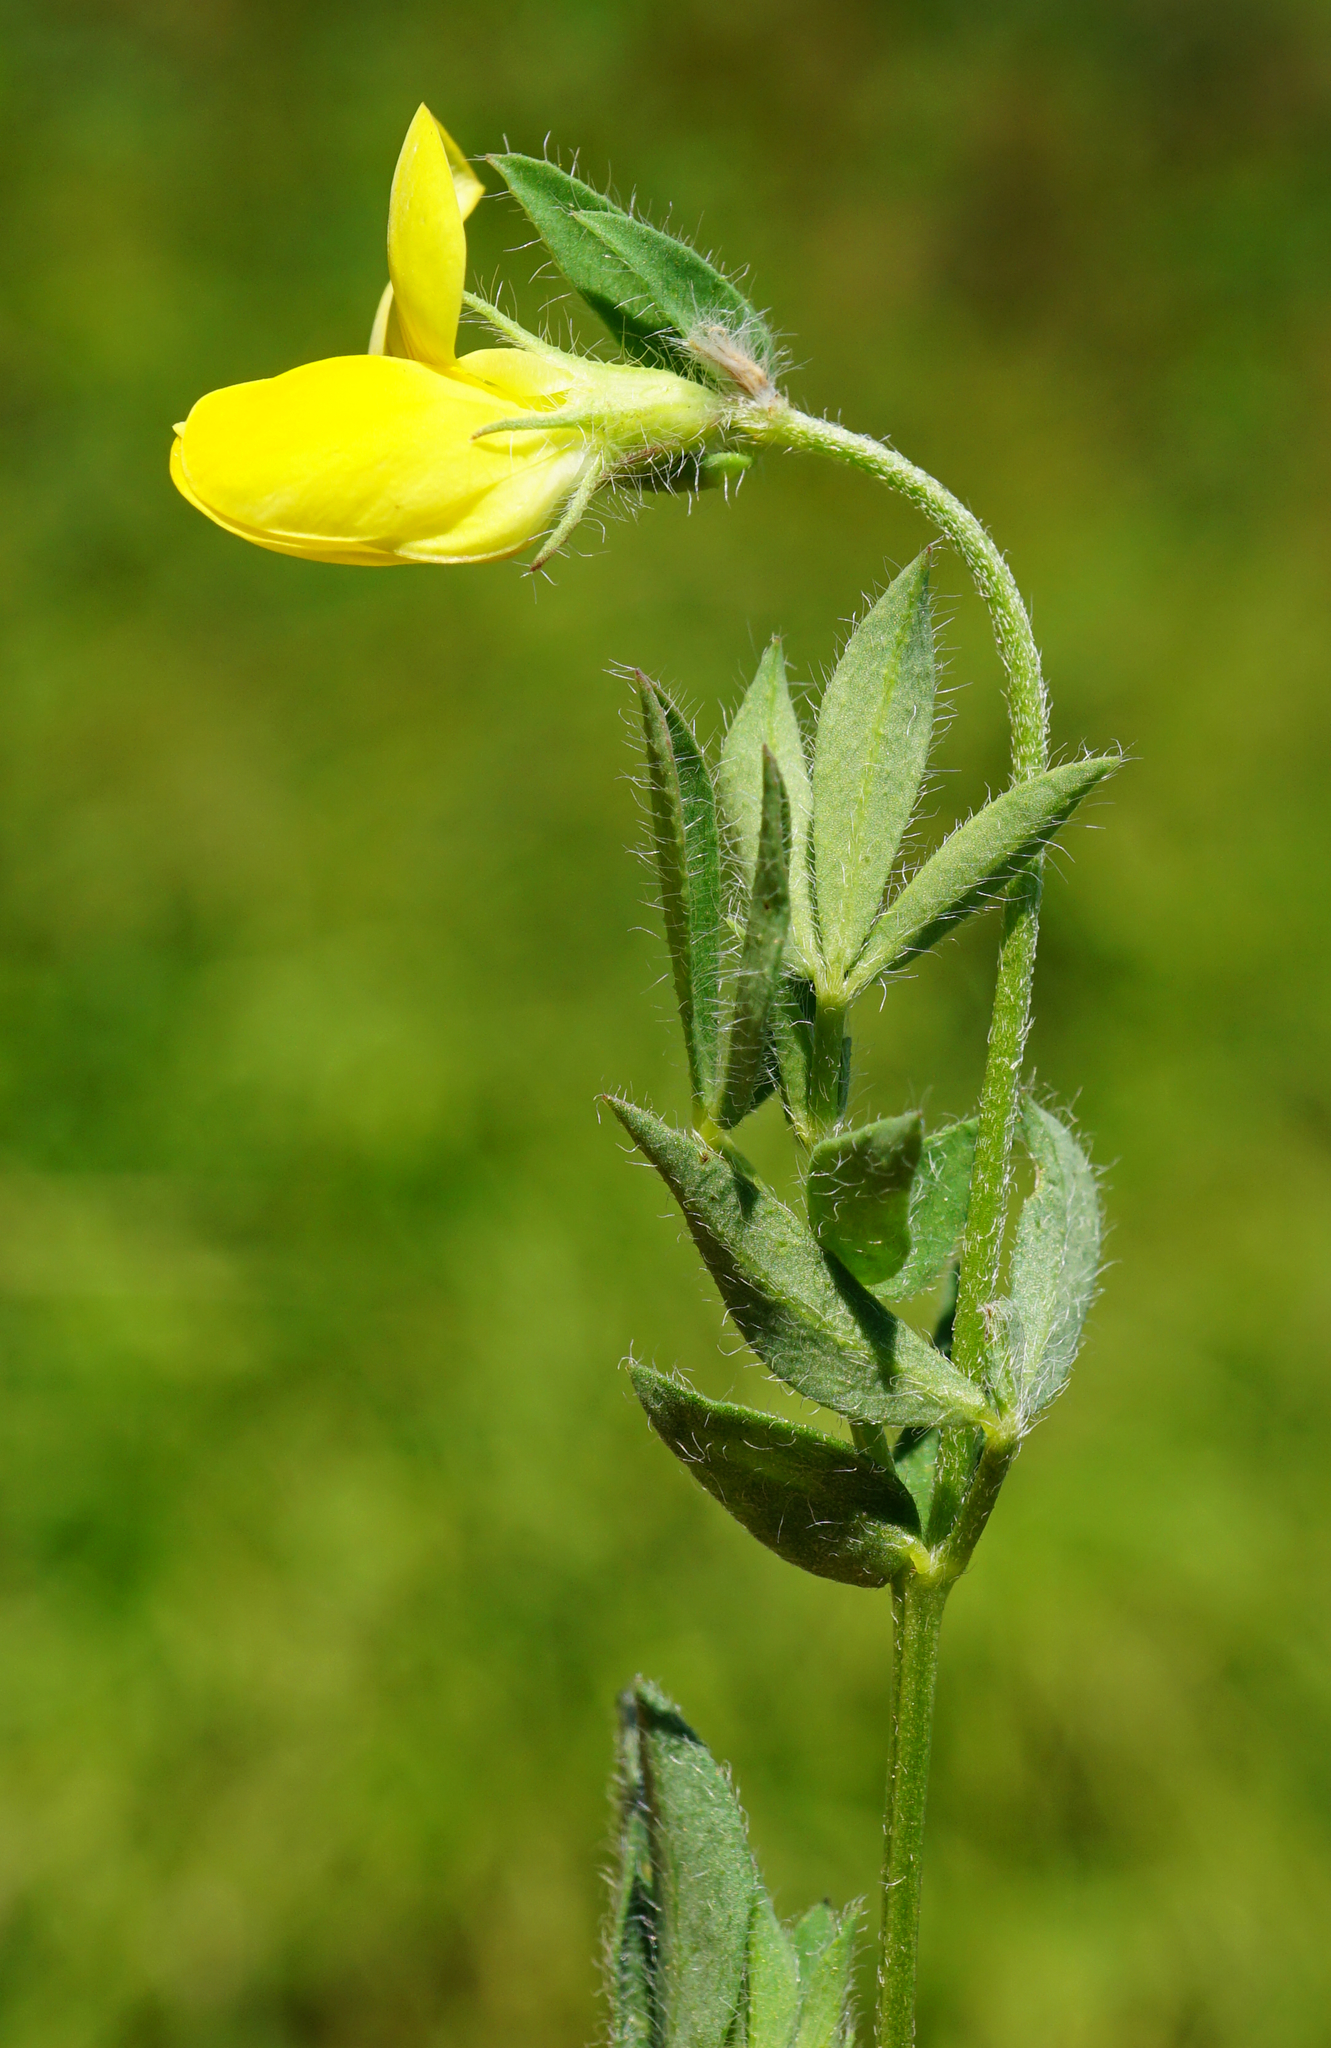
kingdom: Plantae
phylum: Tracheophyta
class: Magnoliopsida
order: Fabales
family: Fabaceae
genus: Lotus
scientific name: Lotus corniculatus
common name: Common bird's-foot-trefoil
